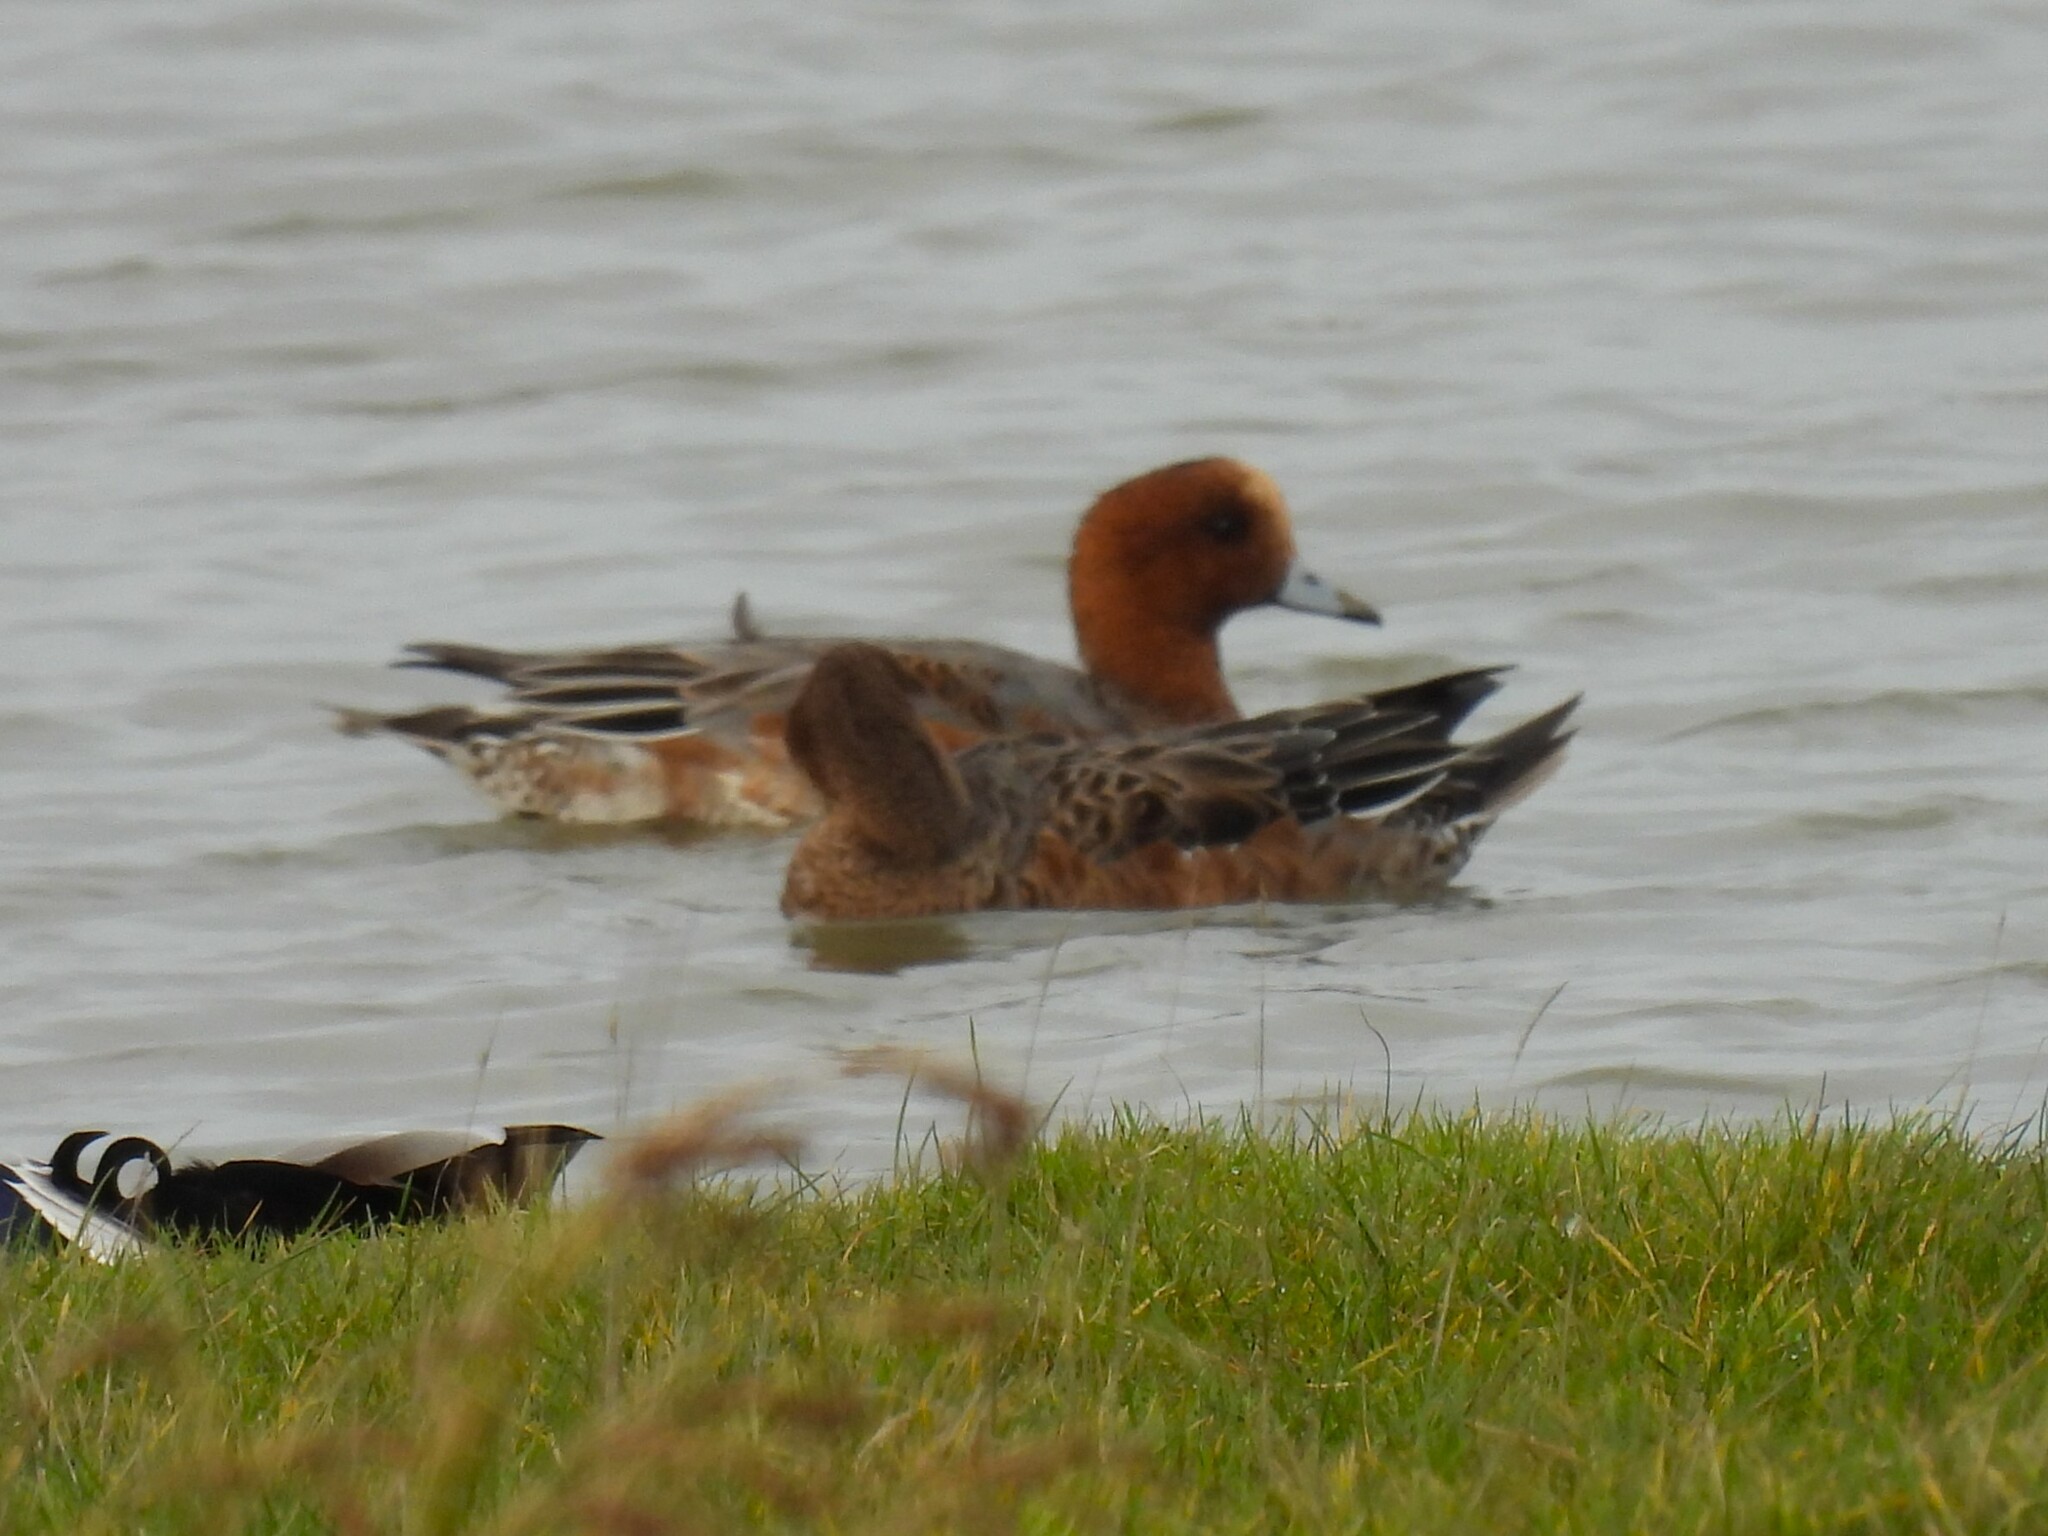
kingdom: Animalia
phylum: Chordata
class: Aves
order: Anseriformes
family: Anatidae
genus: Mareca
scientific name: Mareca penelope
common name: Eurasian wigeon
